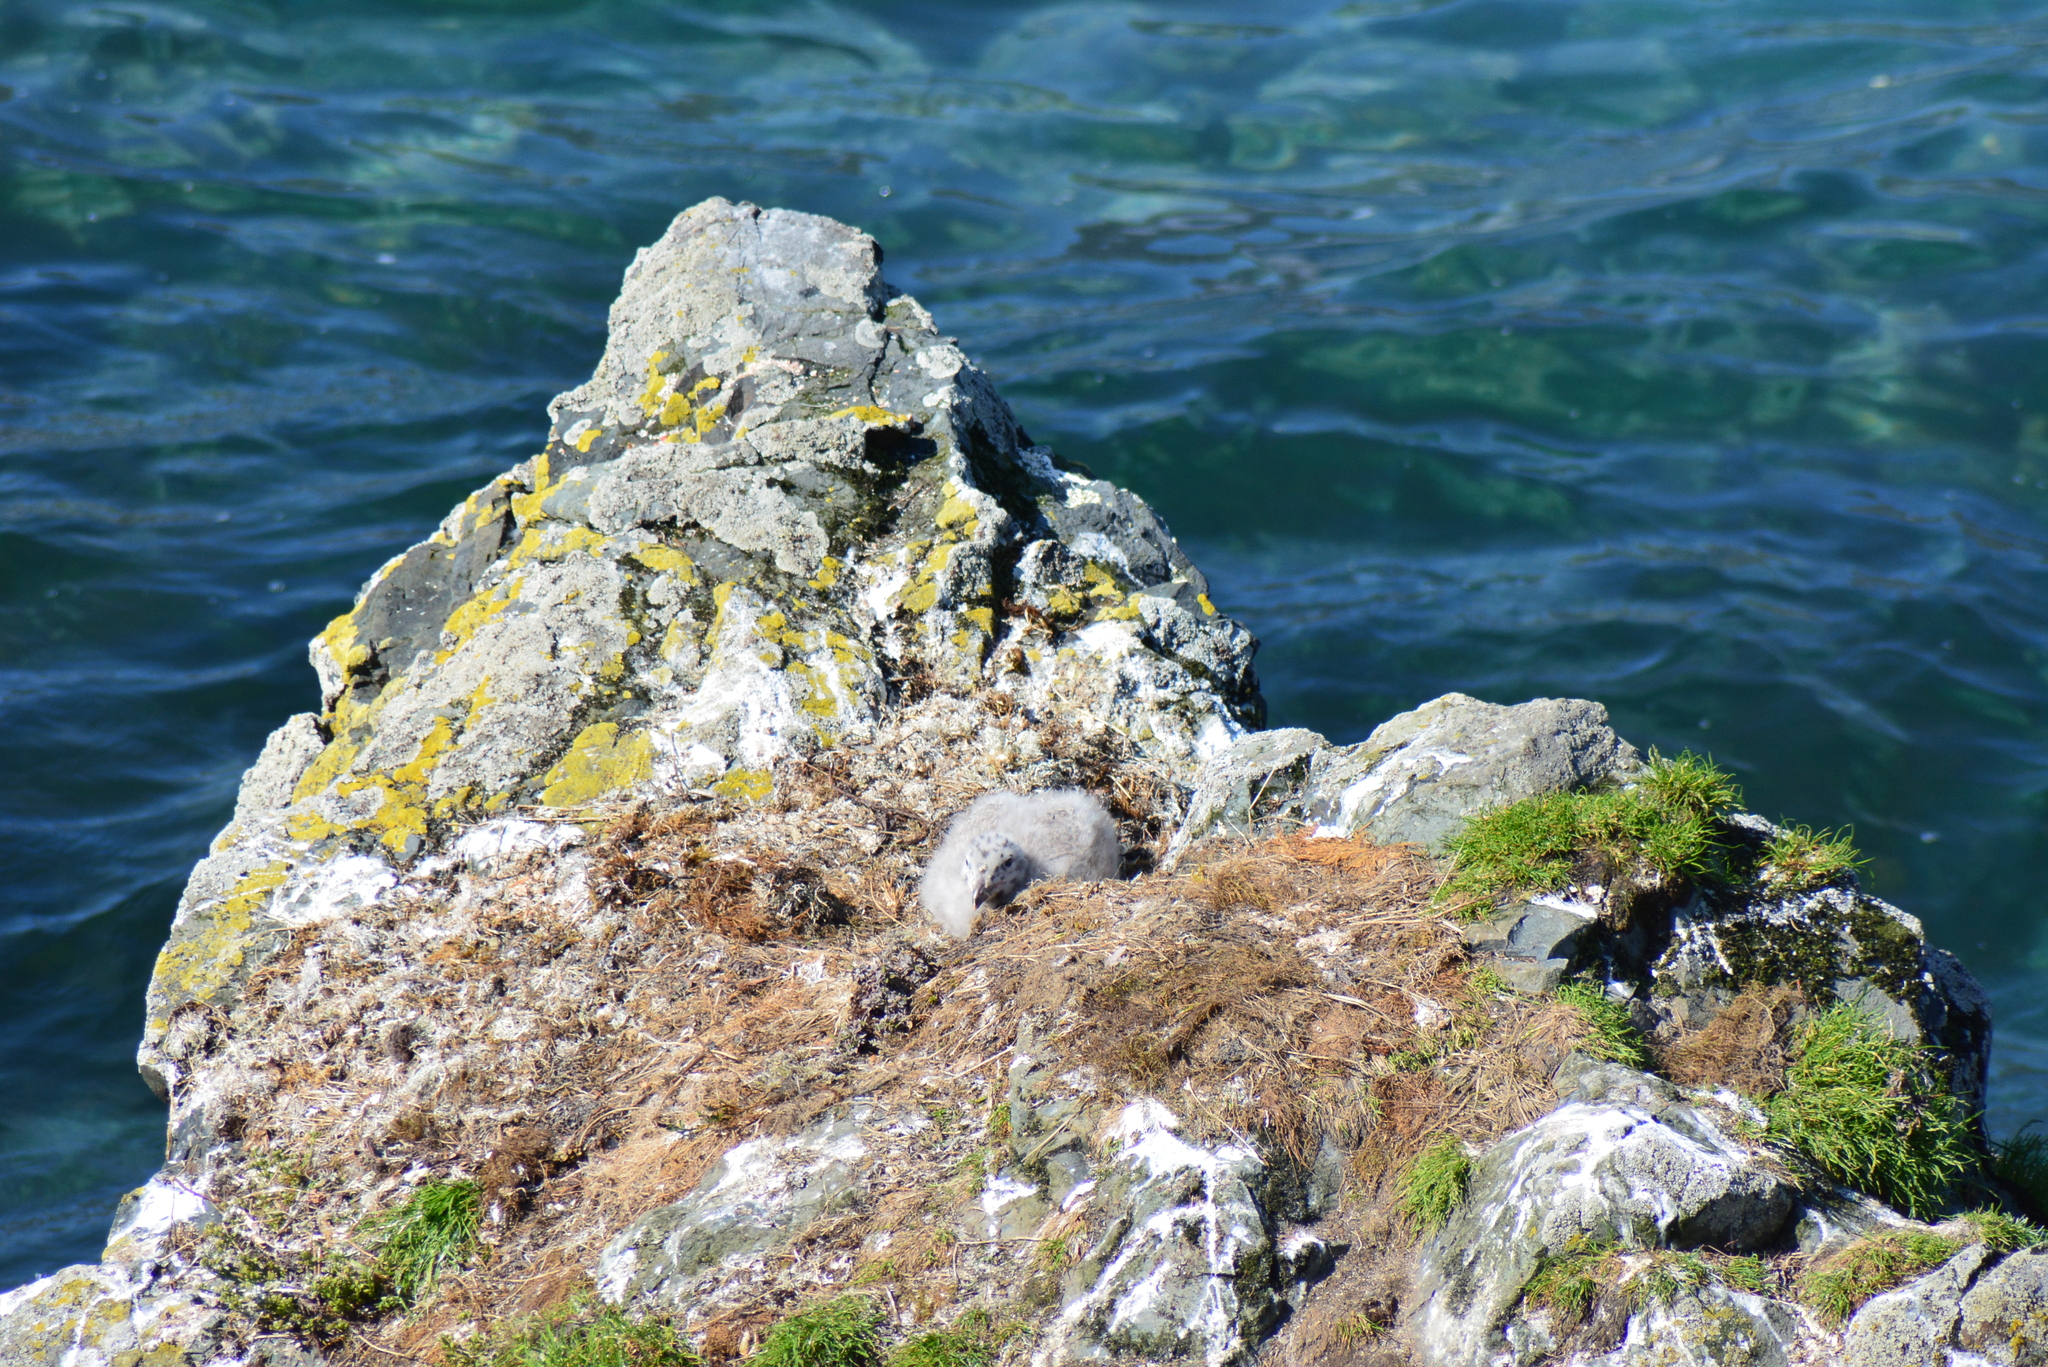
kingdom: Animalia
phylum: Chordata
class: Aves
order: Charadriiformes
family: Laridae
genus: Larus
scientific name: Larus hyperboreus
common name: Glaucous gull
